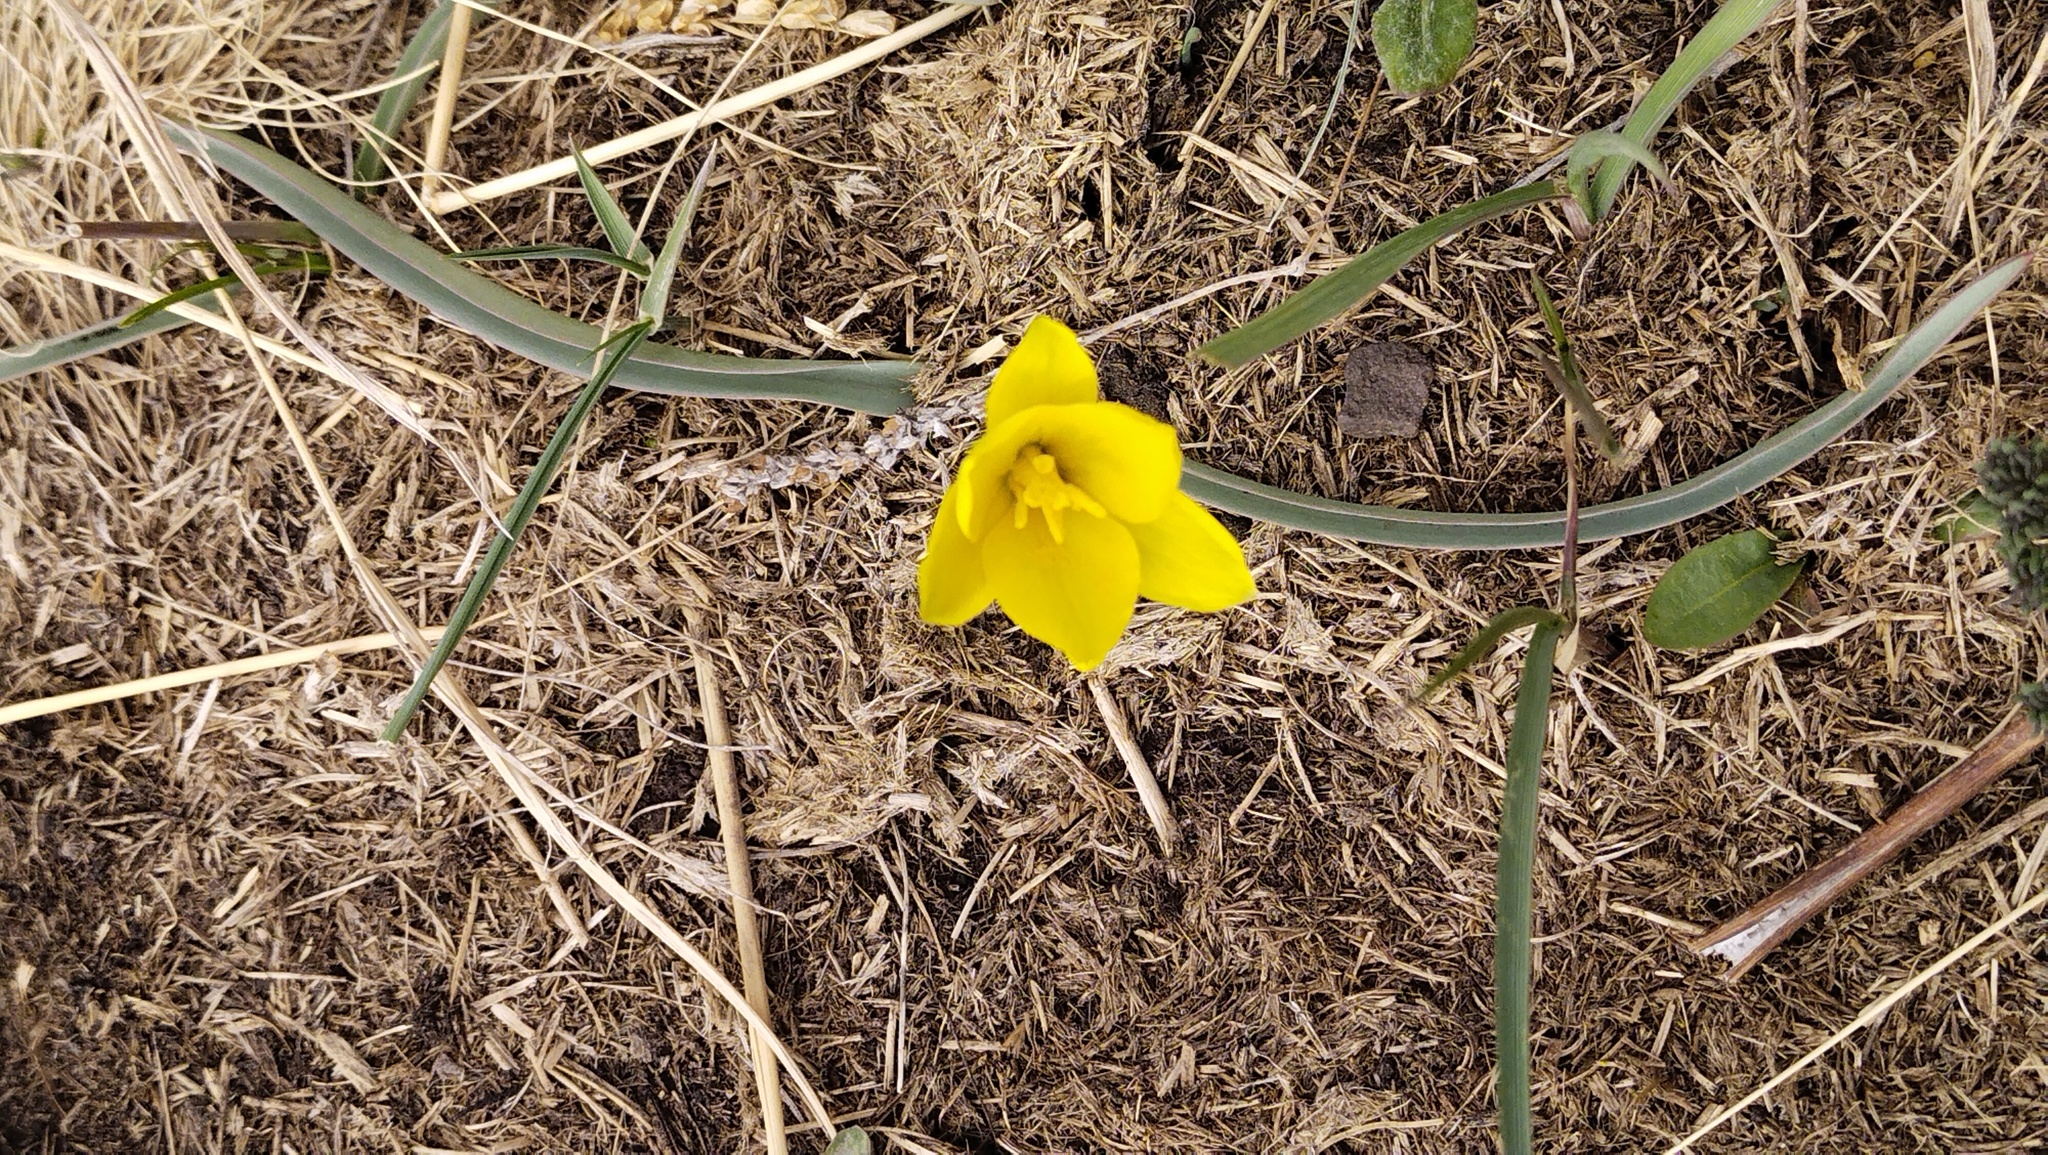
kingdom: Plantae
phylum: Tracheophyta
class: Liliopsida
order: Liliales
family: Liliaceae
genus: Tulipa
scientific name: Tulipa uniflora
